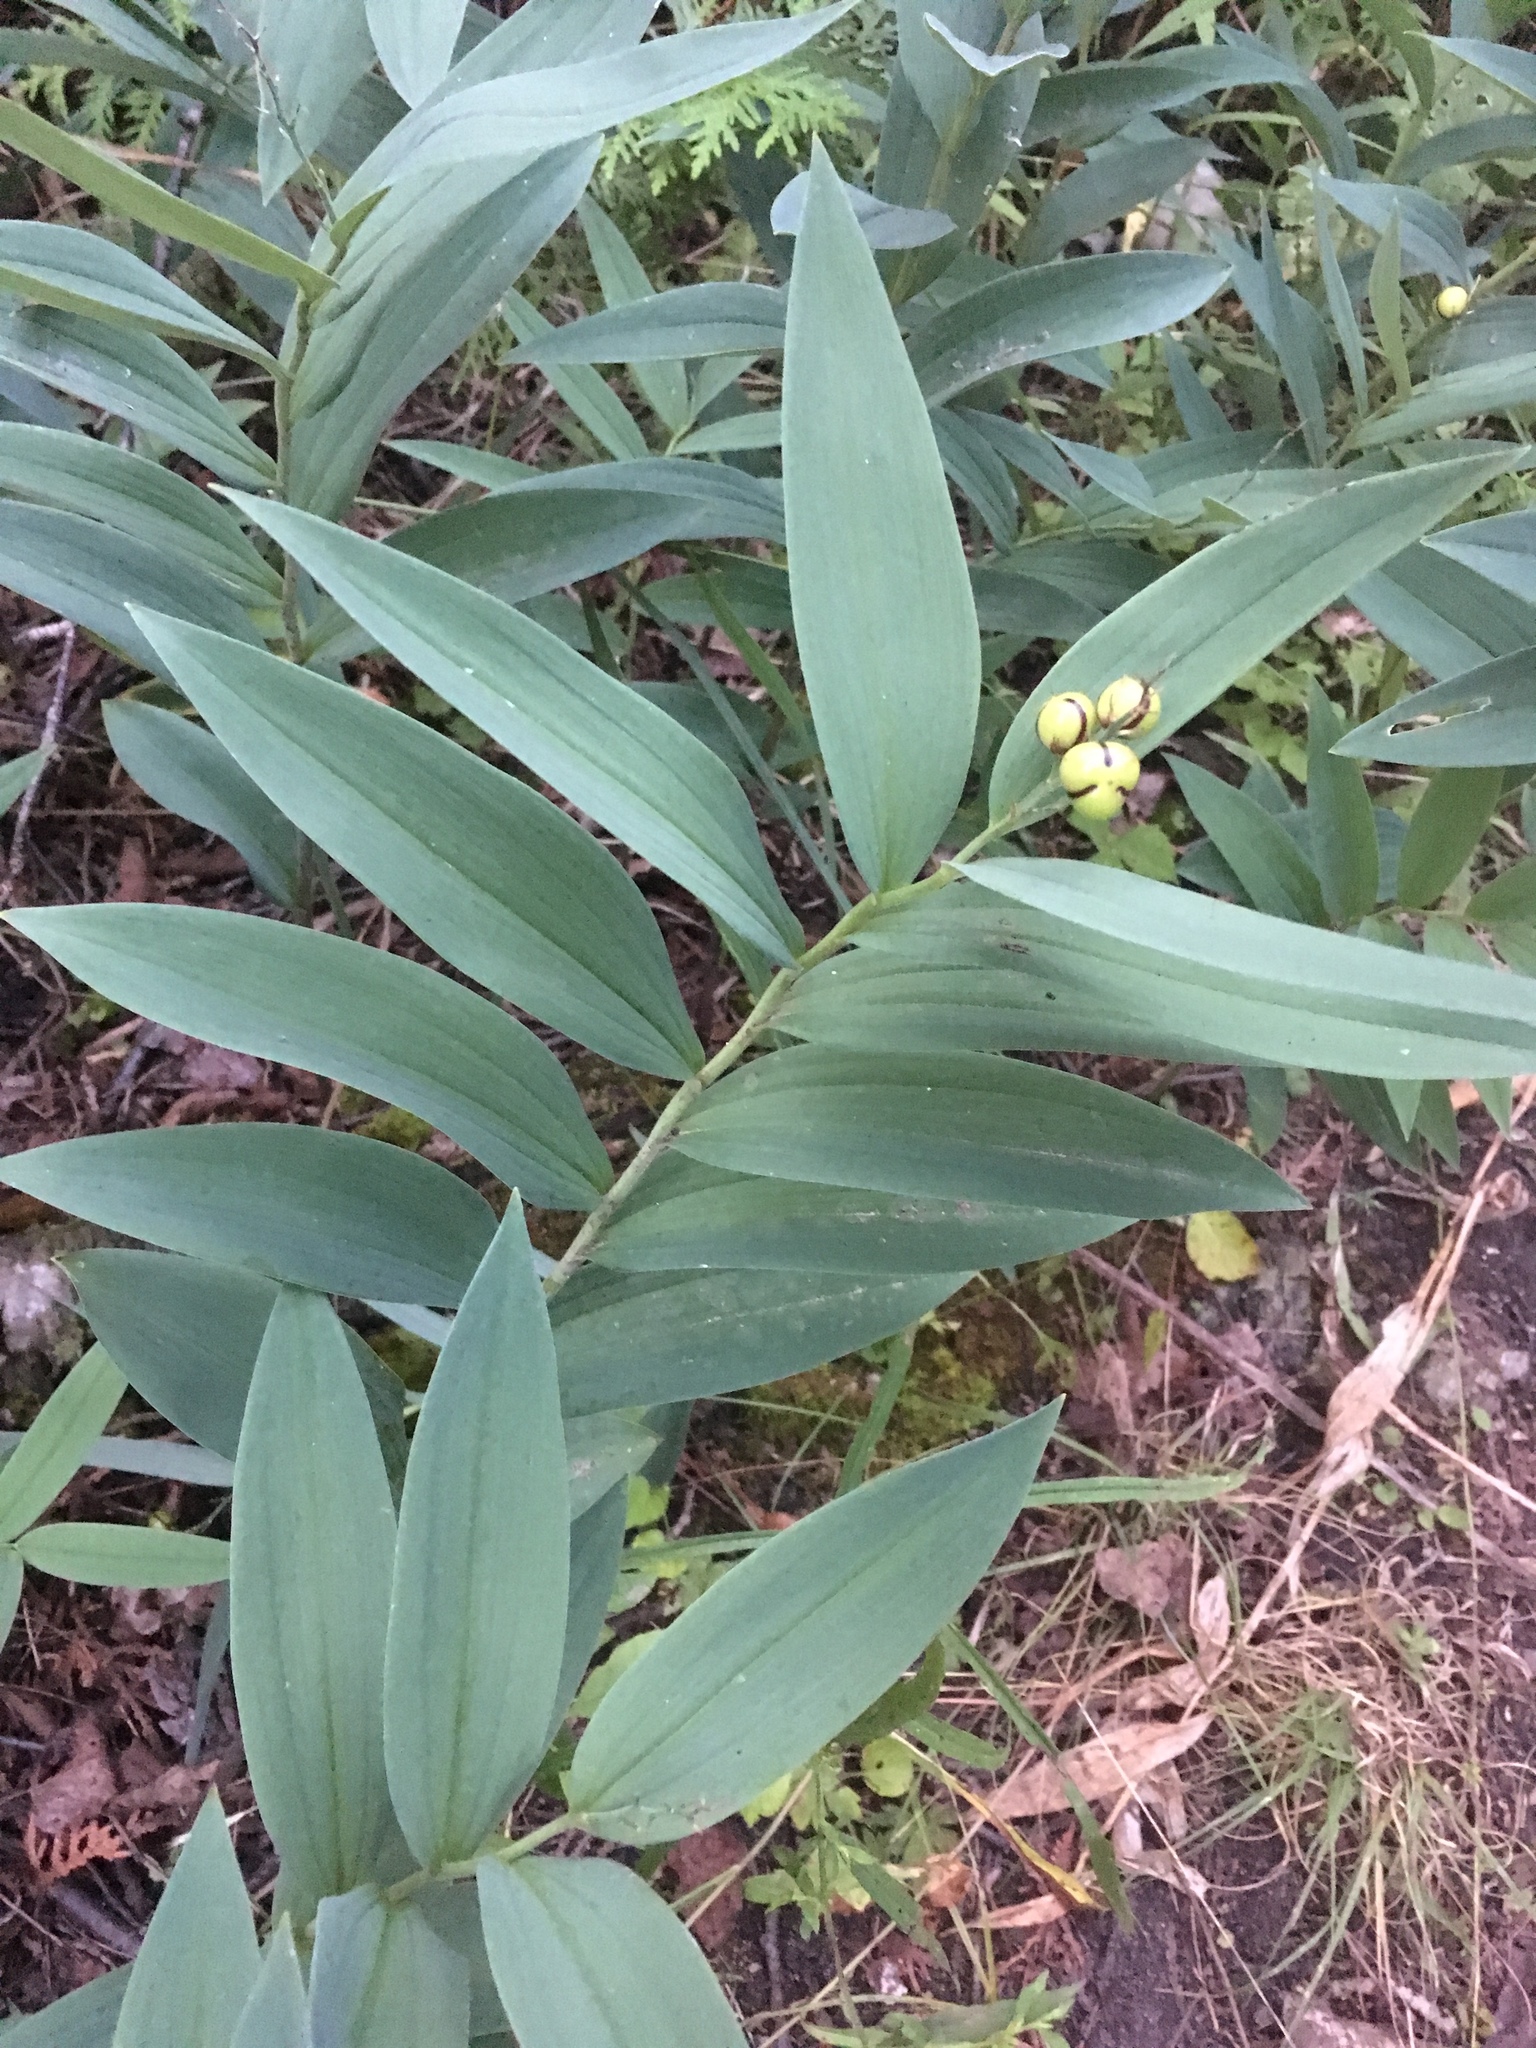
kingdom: Plantae
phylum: Tracheophyta
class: Liliopsida
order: Asparagales
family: Asparagaceae
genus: Maianthemum
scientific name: Maianthemum stellatum
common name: Little false solomon's seal
